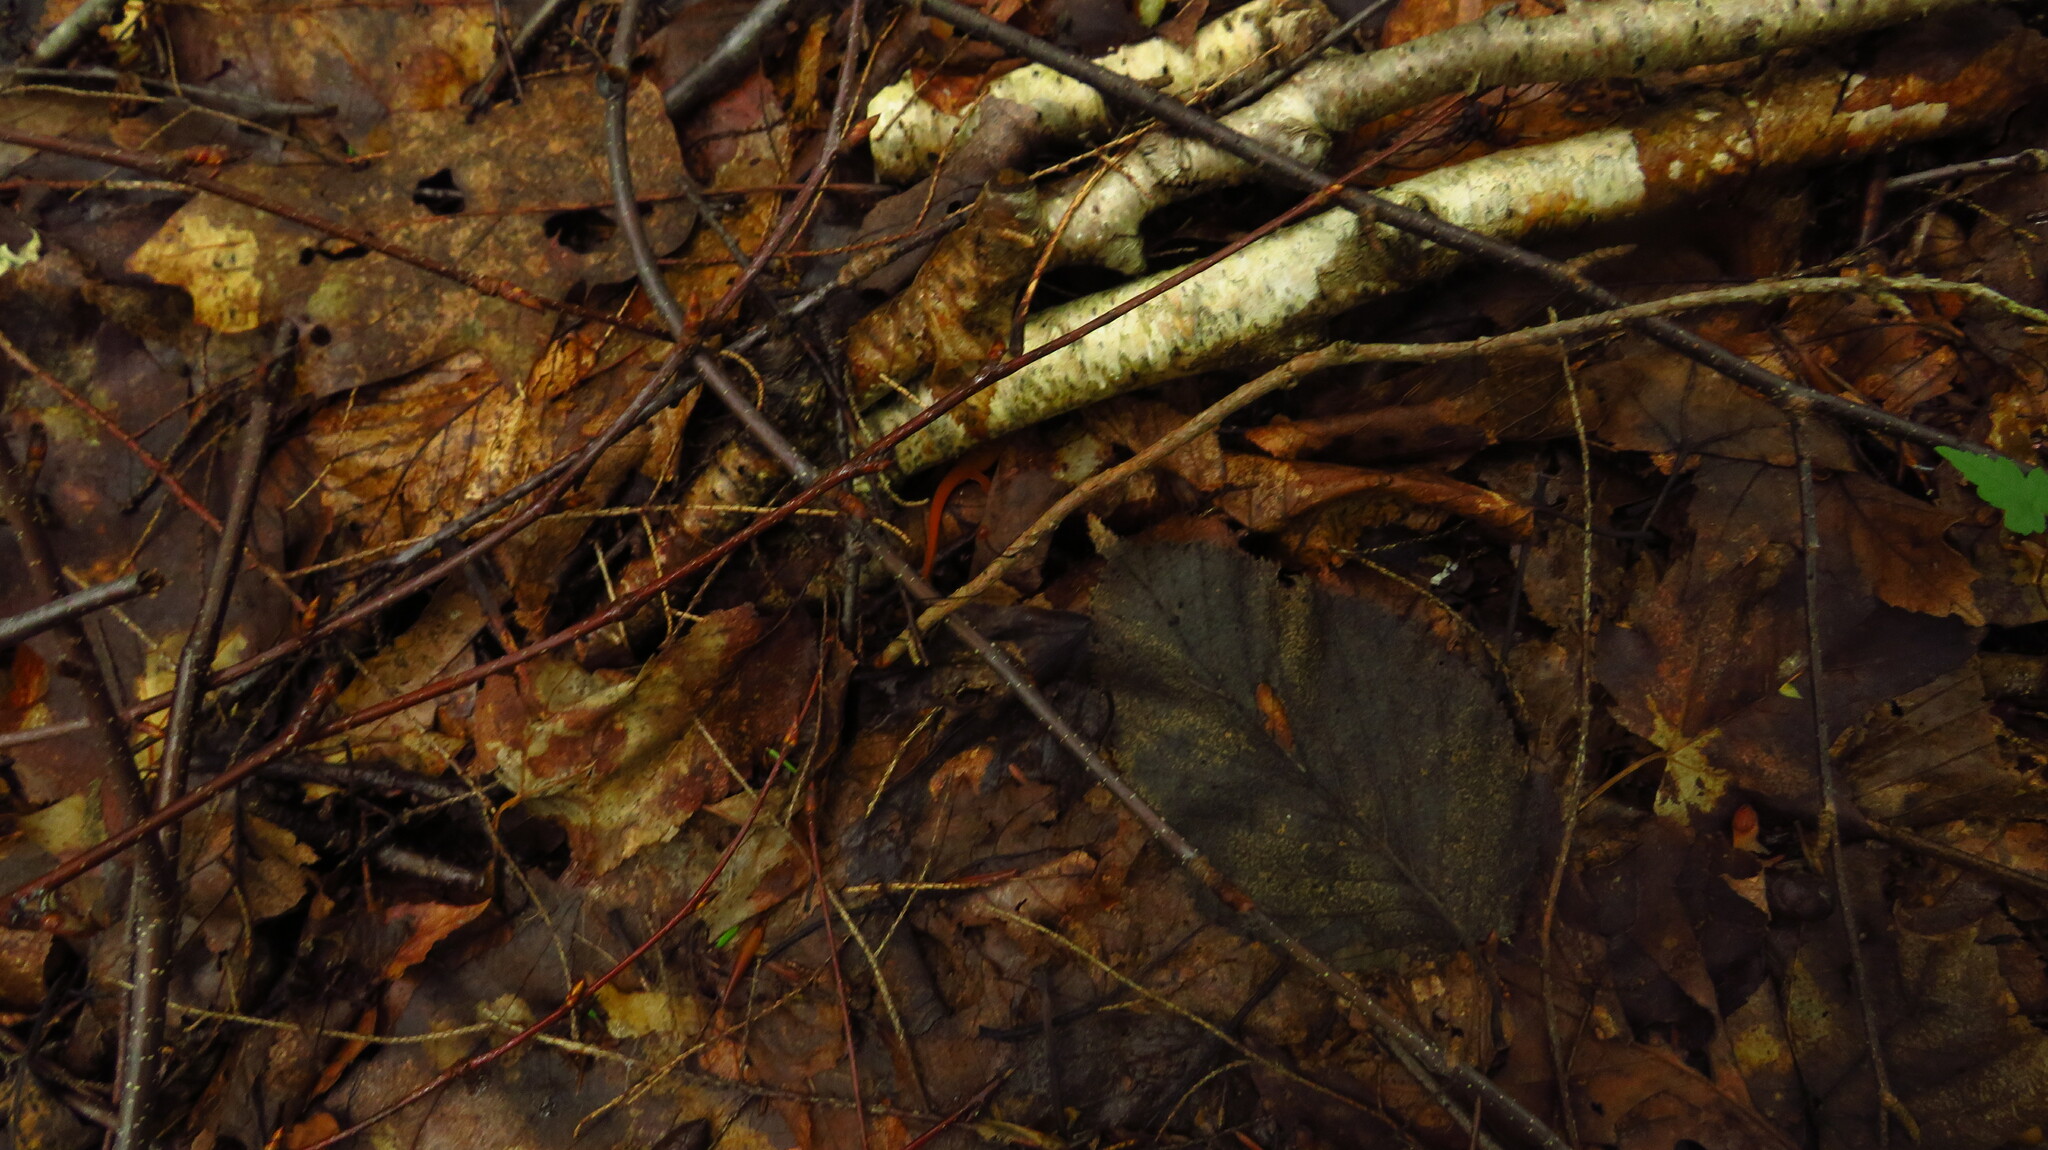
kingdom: Animalia
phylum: Chordata
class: Amphibia
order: Caudata
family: Salamandridae
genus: Notophthalmus
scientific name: Notophthalmus viridescens
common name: Eastern newt
